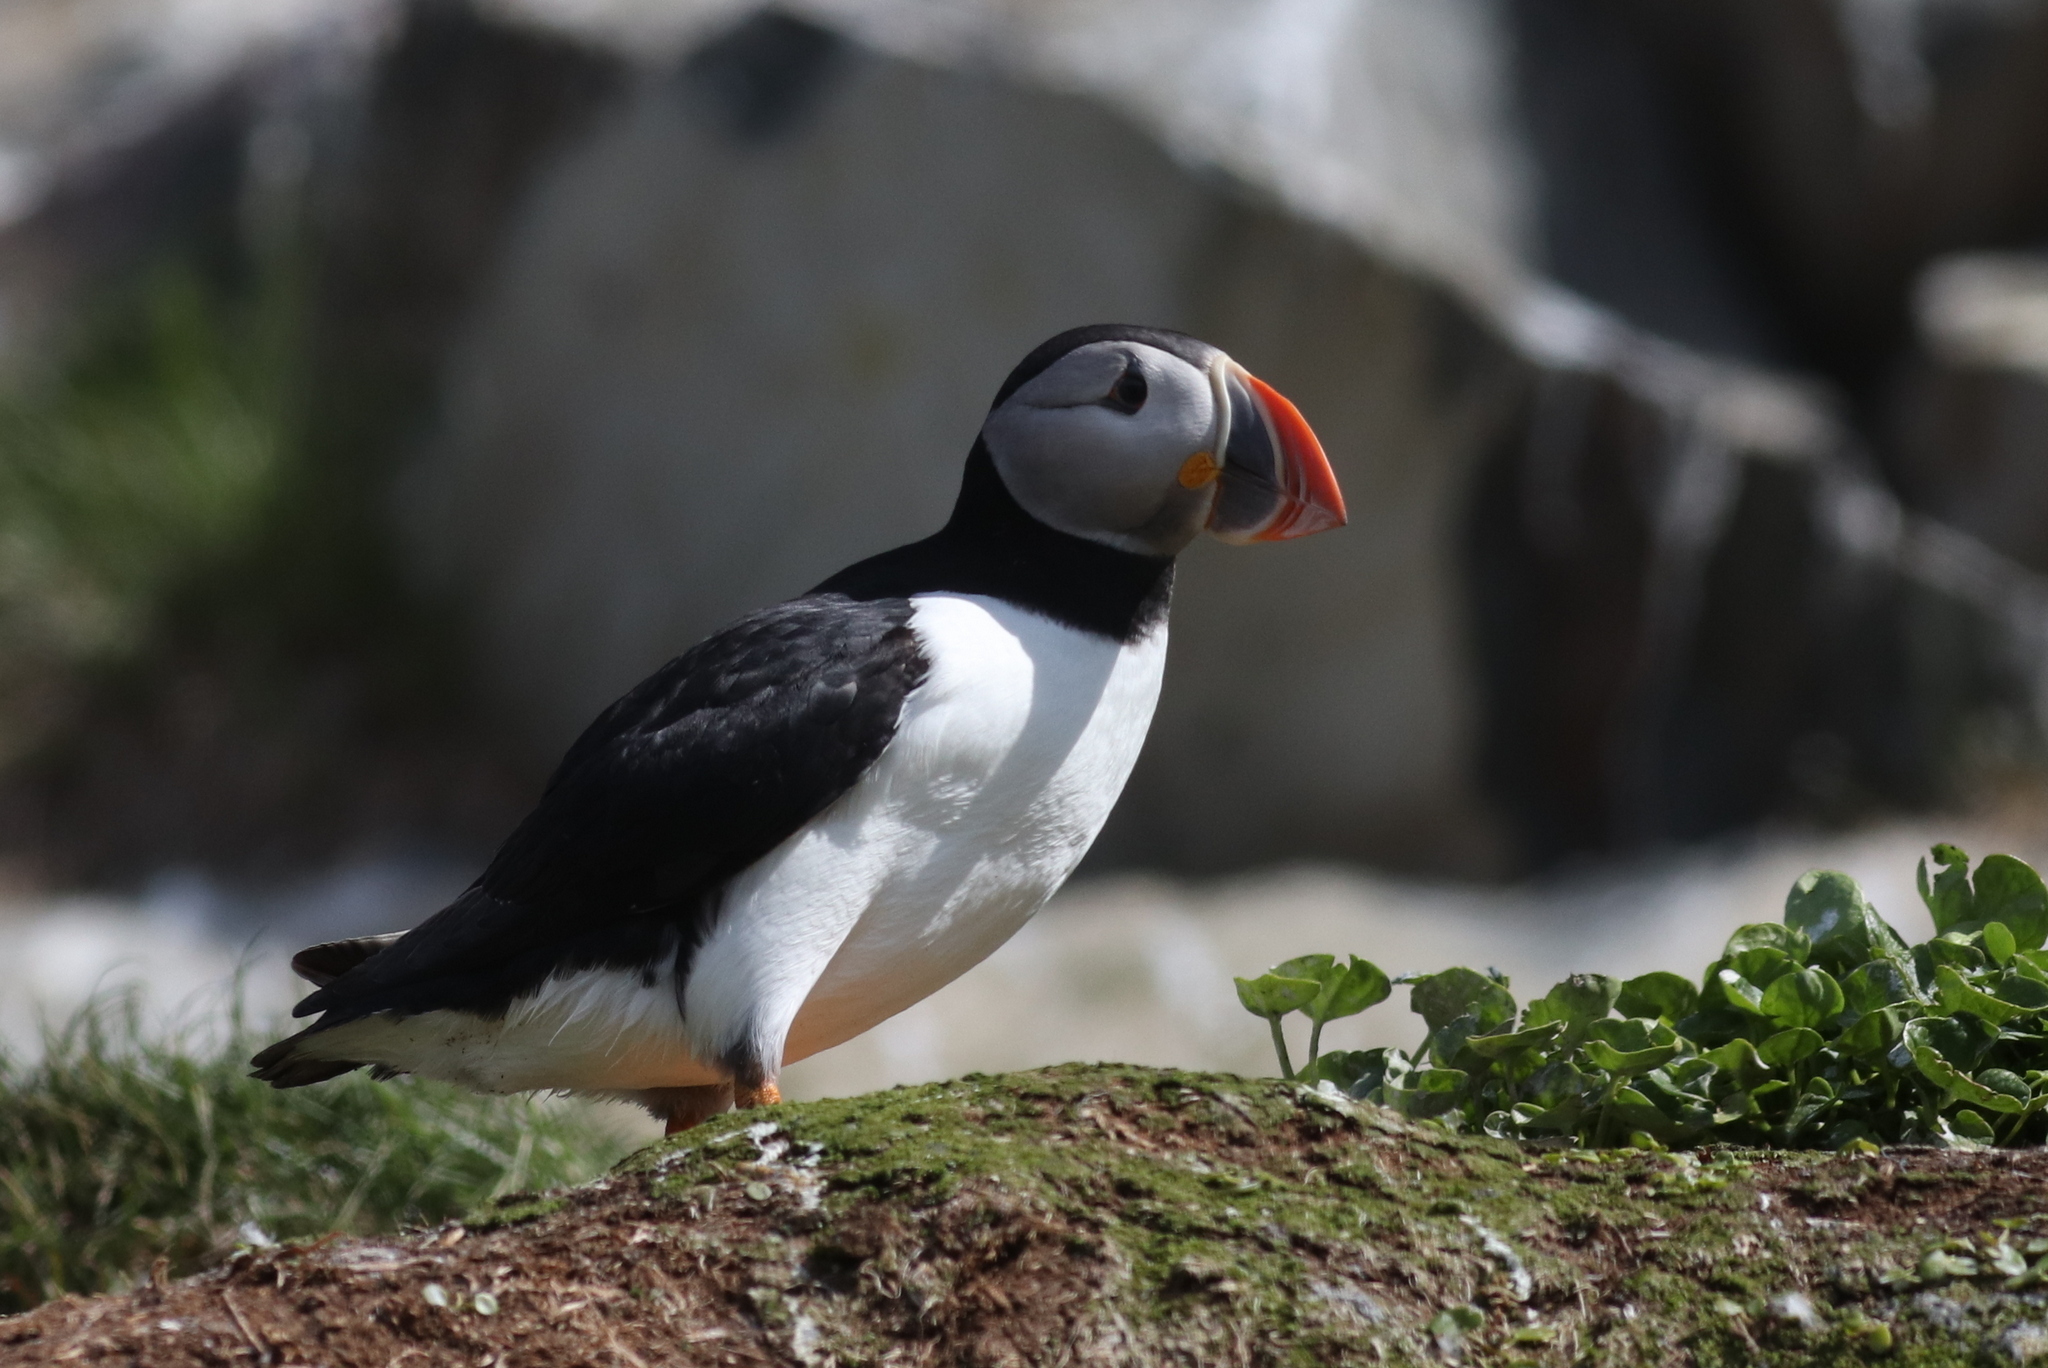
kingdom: Animalia
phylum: Chordata
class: Aves
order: Charadriiformes
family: Alcidae
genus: Fratercula
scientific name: Fratercula arctica
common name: Atlantic puffin
